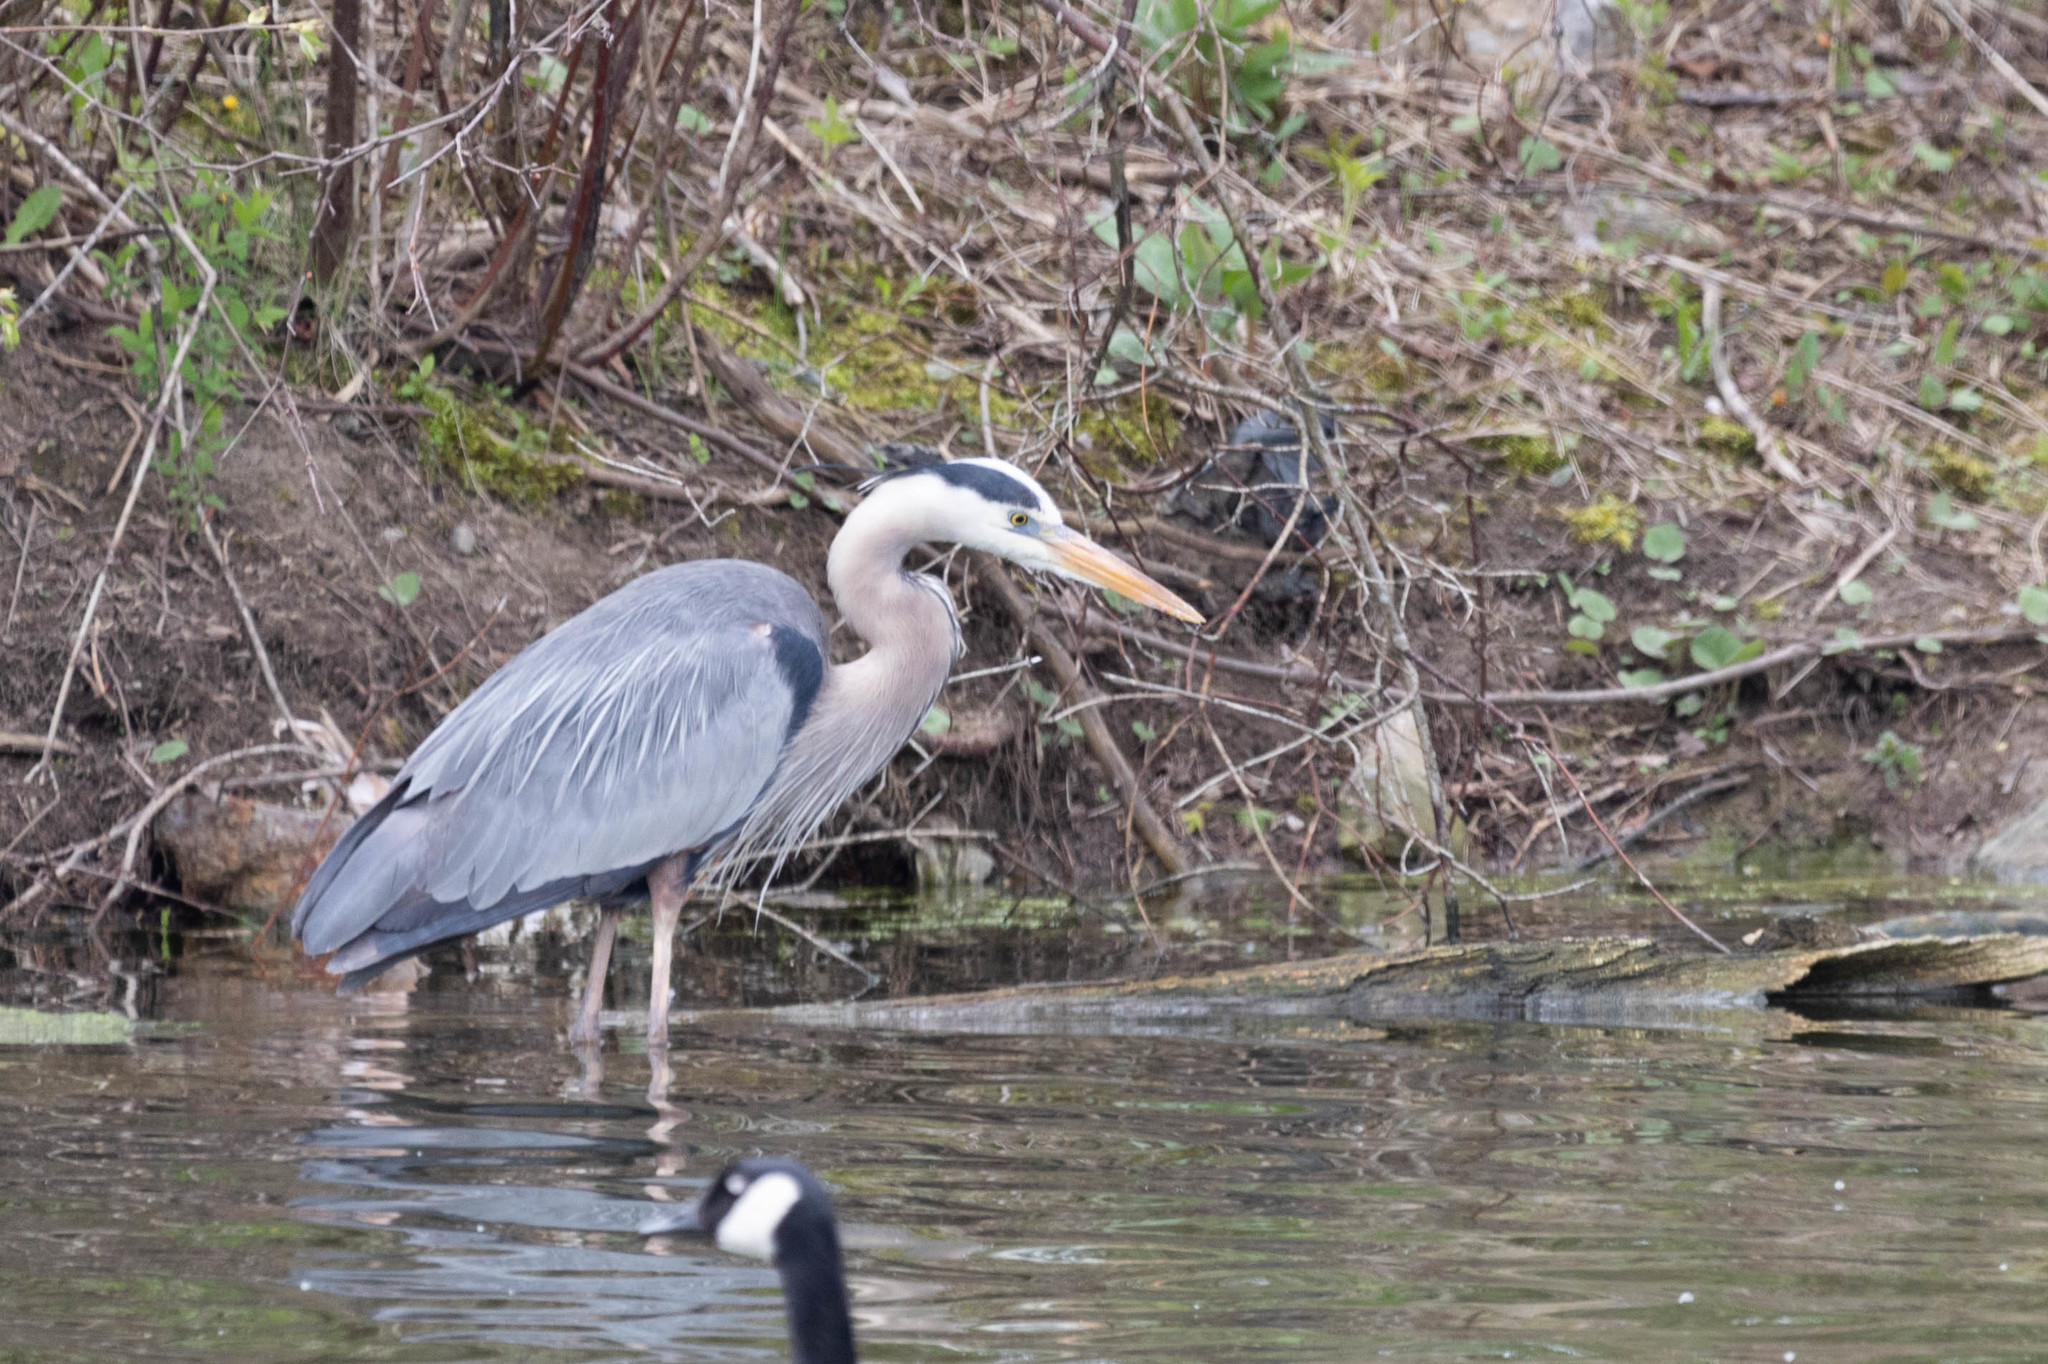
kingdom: Animalia
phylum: Chordata
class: Aves
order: Pelecaniformes
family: Ardeidae
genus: Ardea
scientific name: Ardea herodias
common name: Great blue heron
